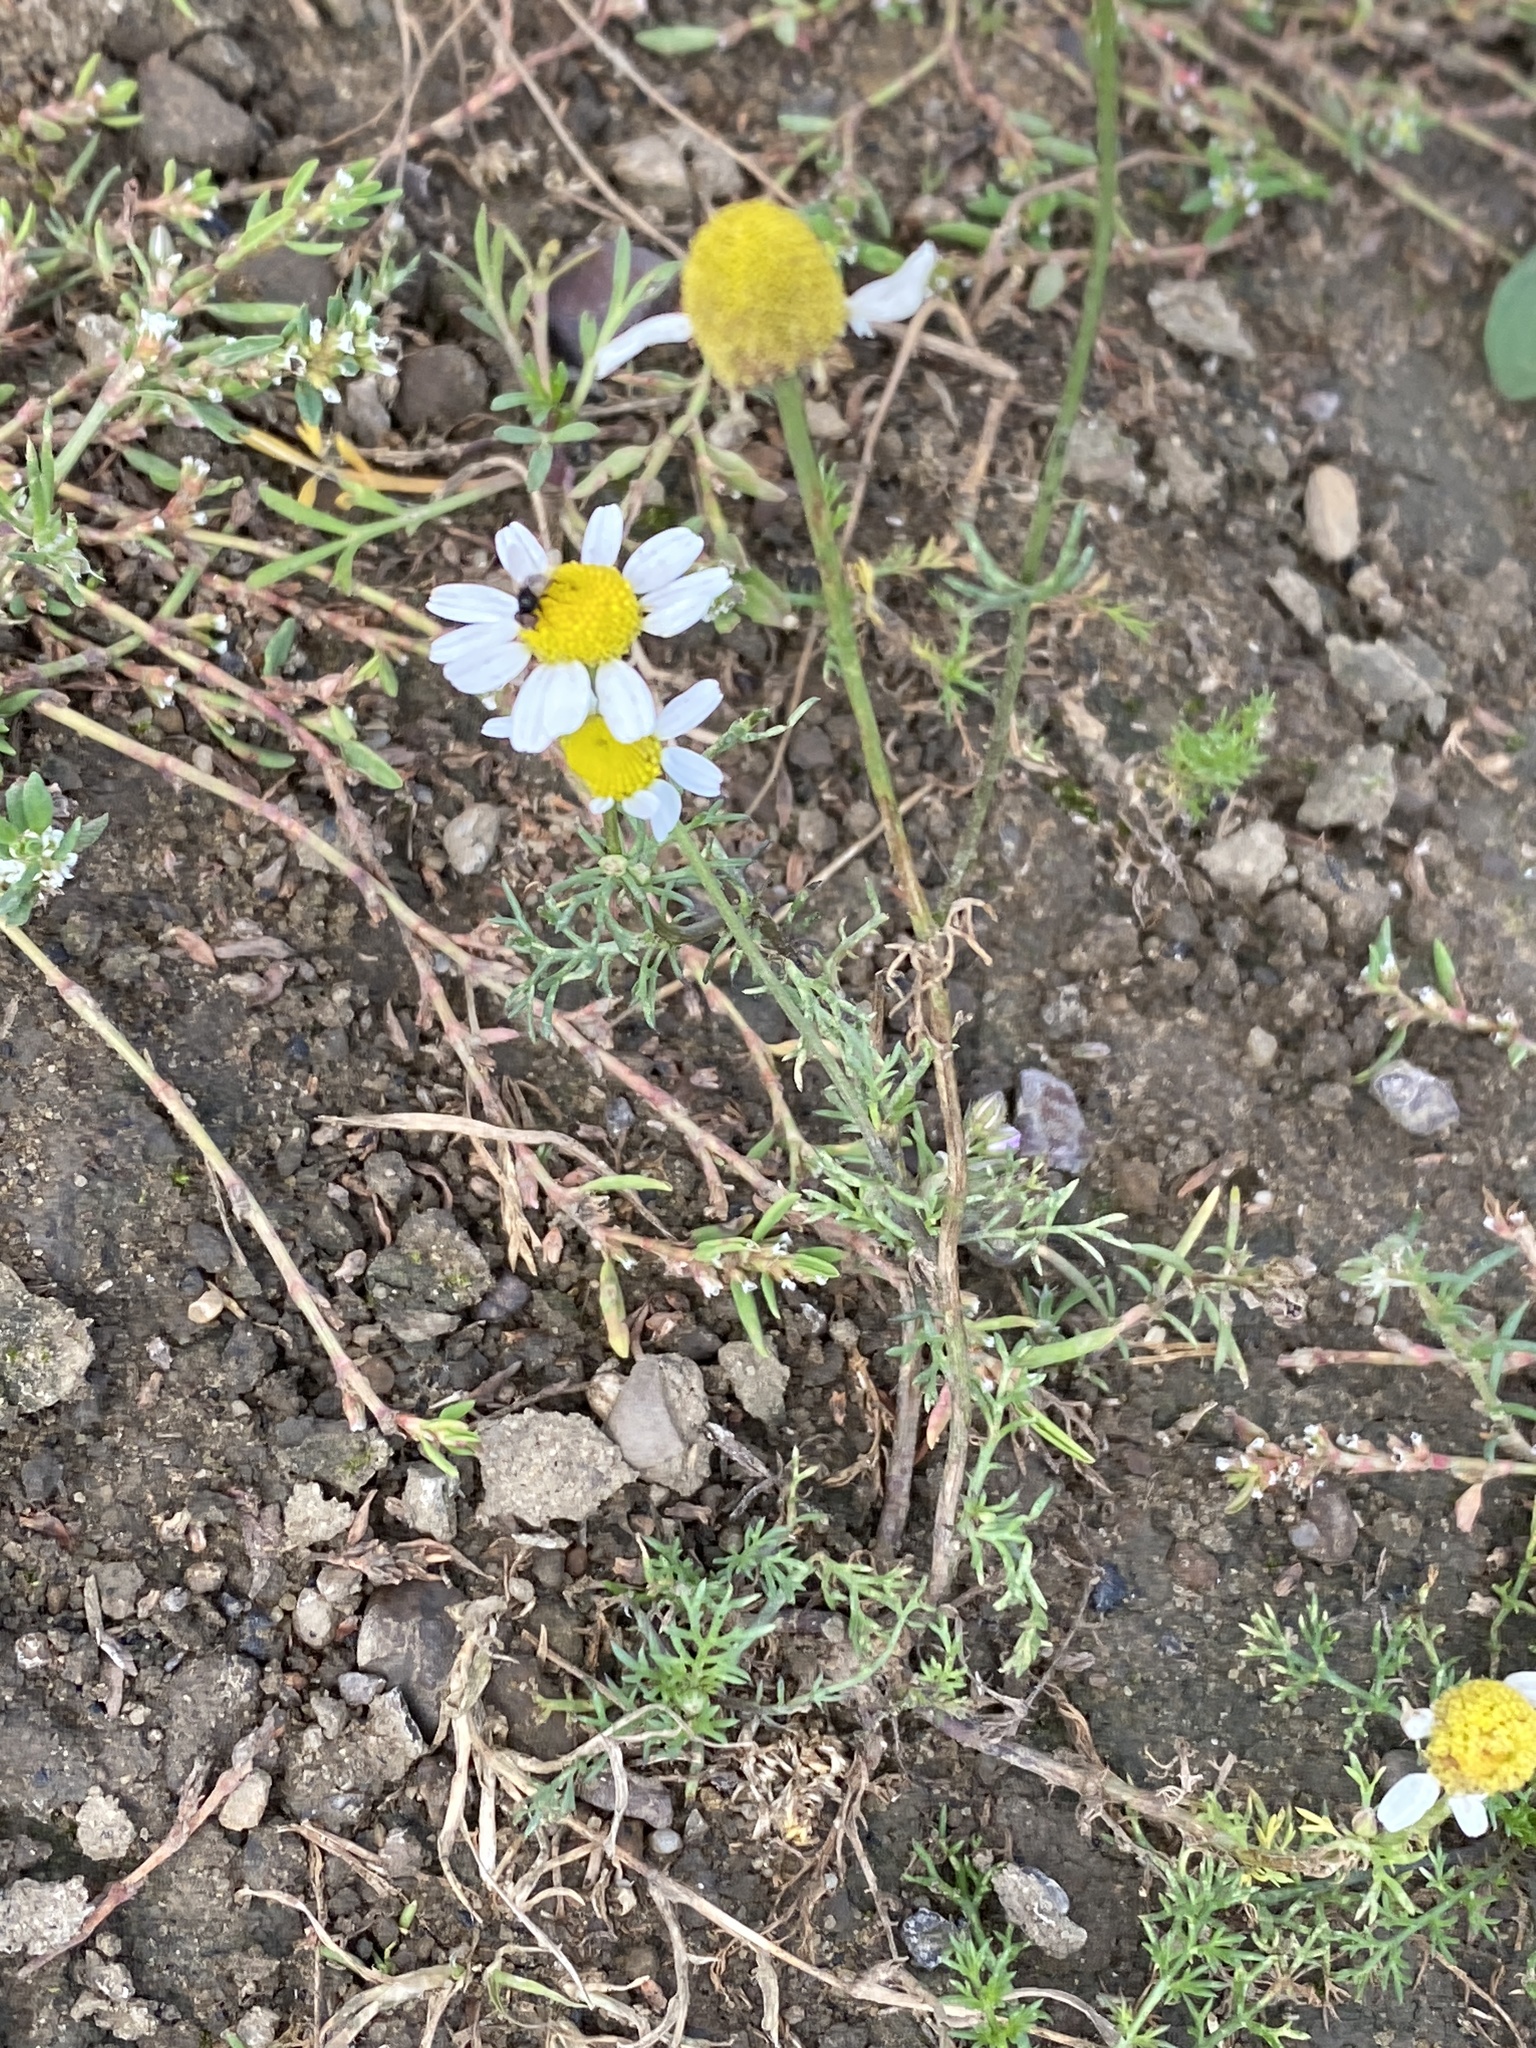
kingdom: Plantae
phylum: Tracheophyta
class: Magnoliopsida
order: Asterales
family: Asteraceae
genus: Tripleurospermum
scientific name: Tripleurospermum inodorum
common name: Scentless mayweed
